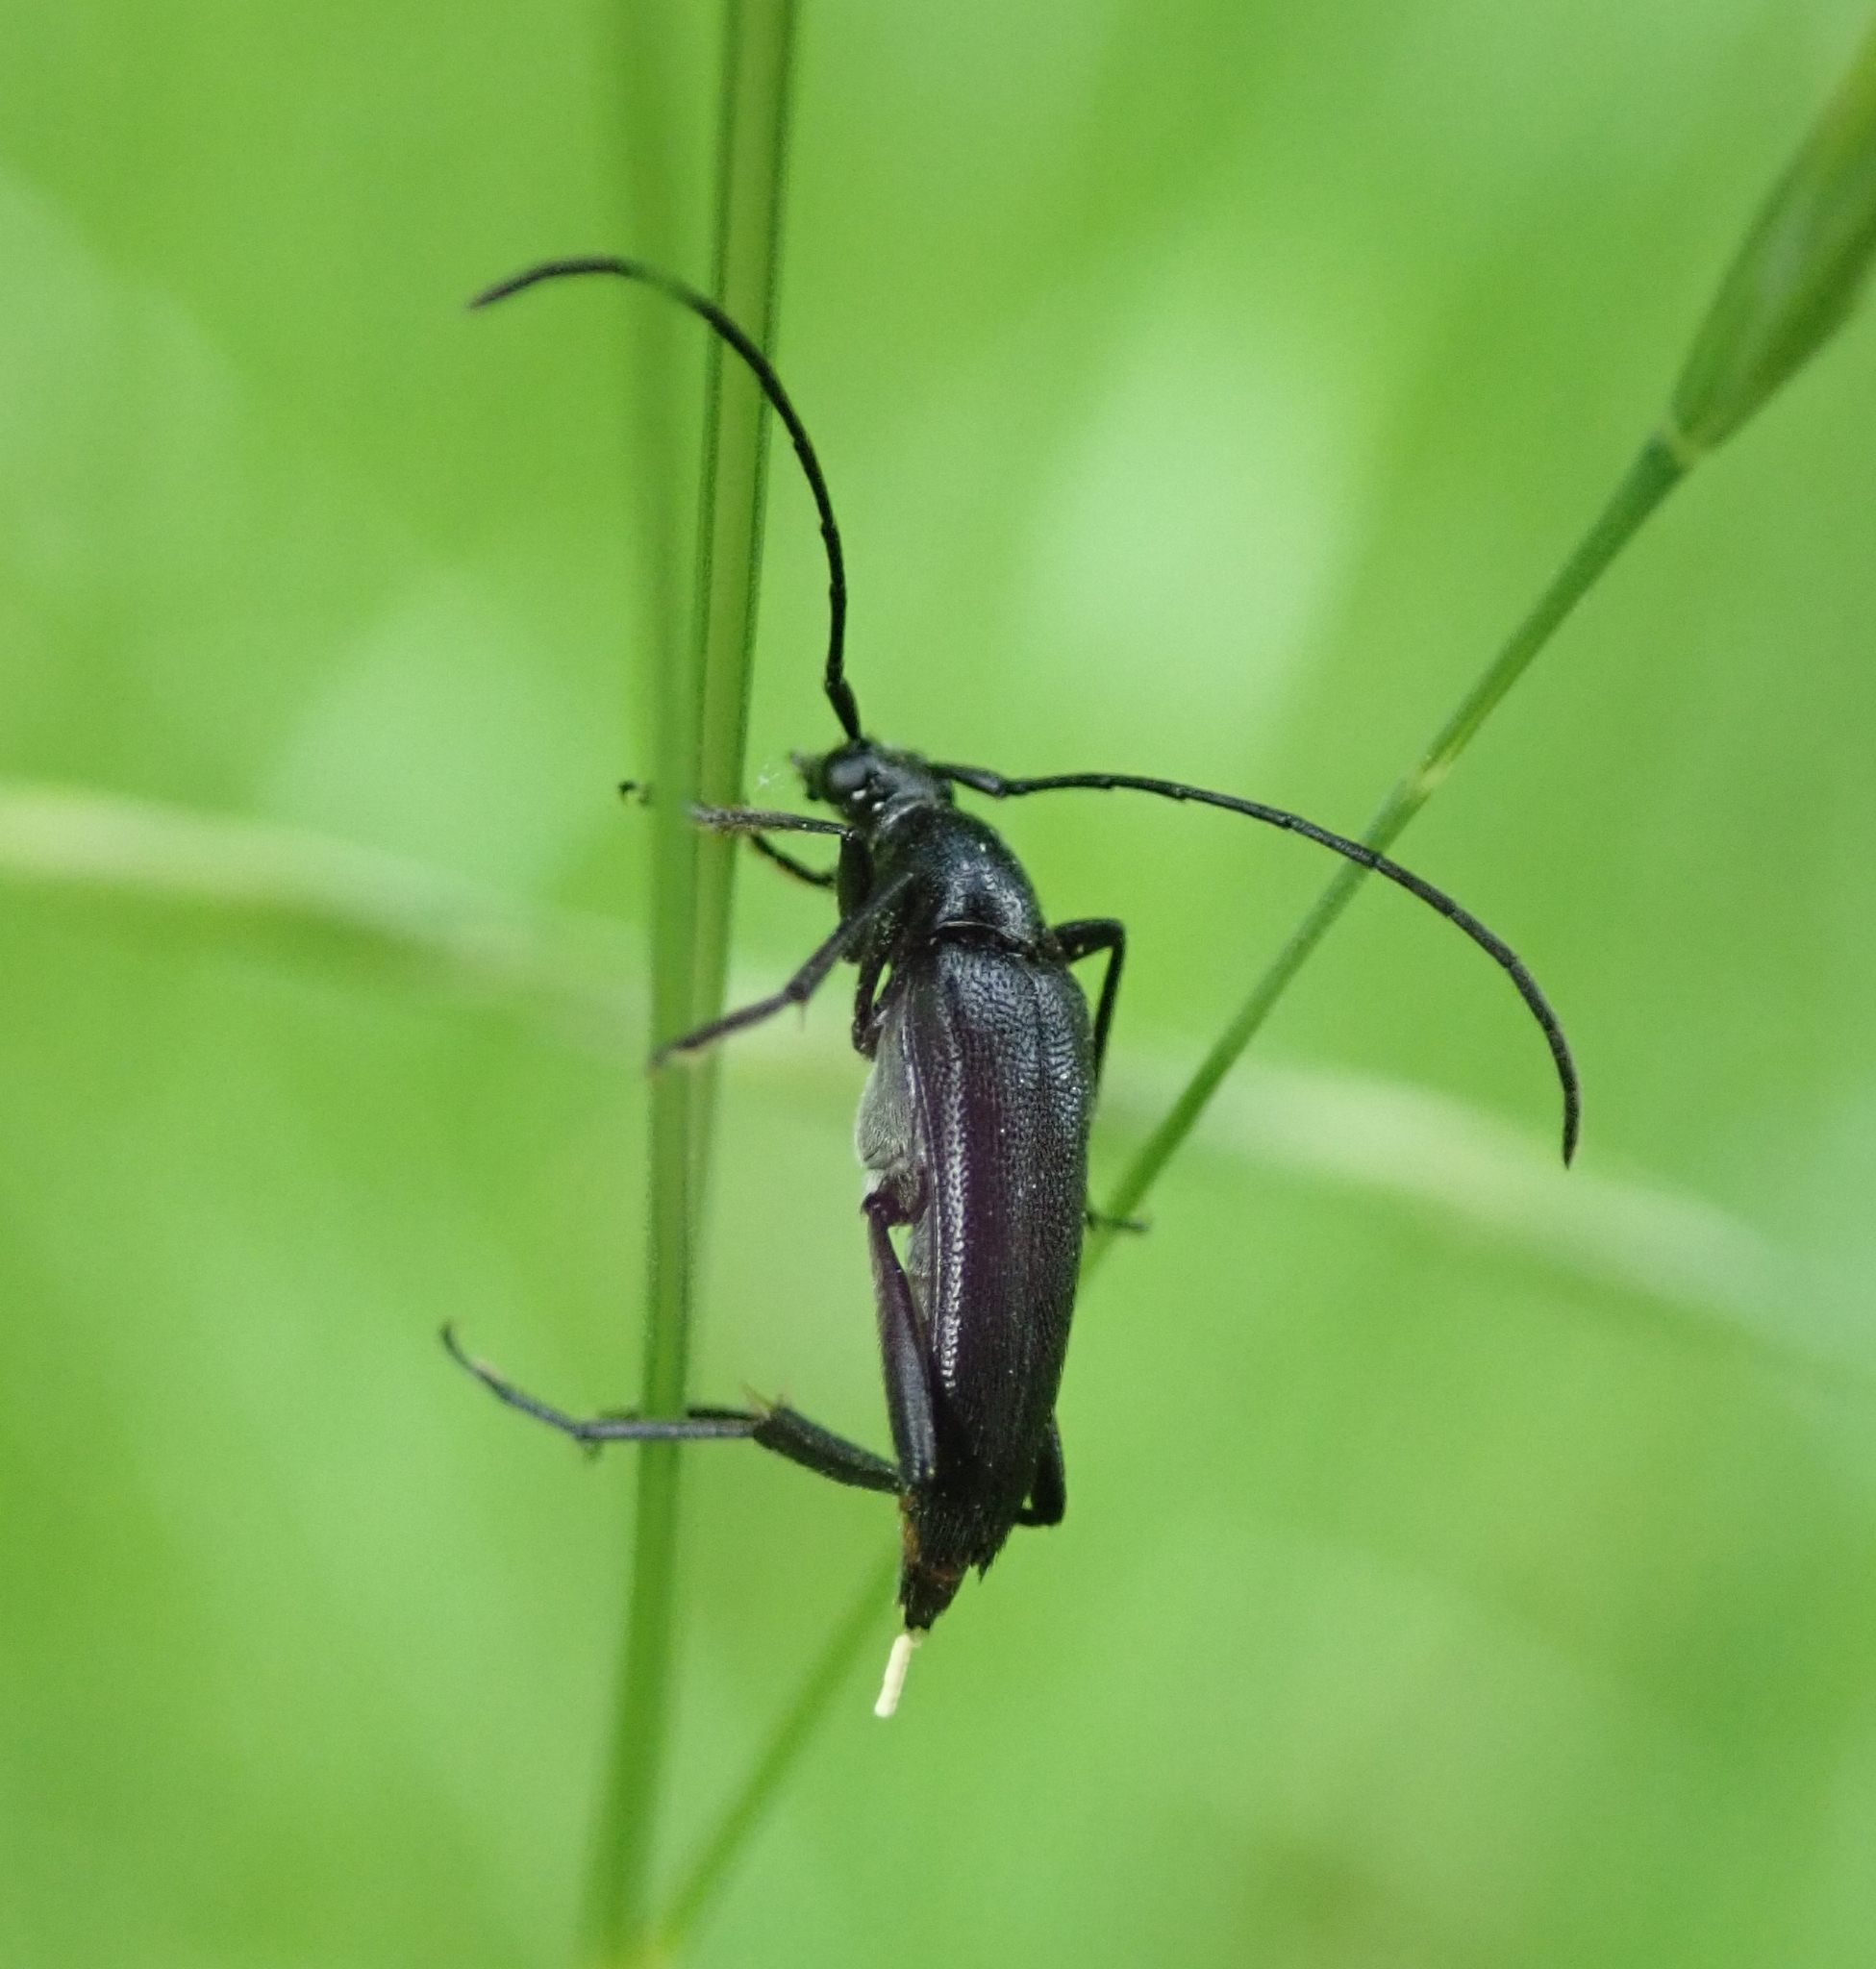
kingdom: Animalia
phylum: Arthropoda
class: Insecta
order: Coleoptera
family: Cerambycidae
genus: Stenurella
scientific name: Stenurella nigra
